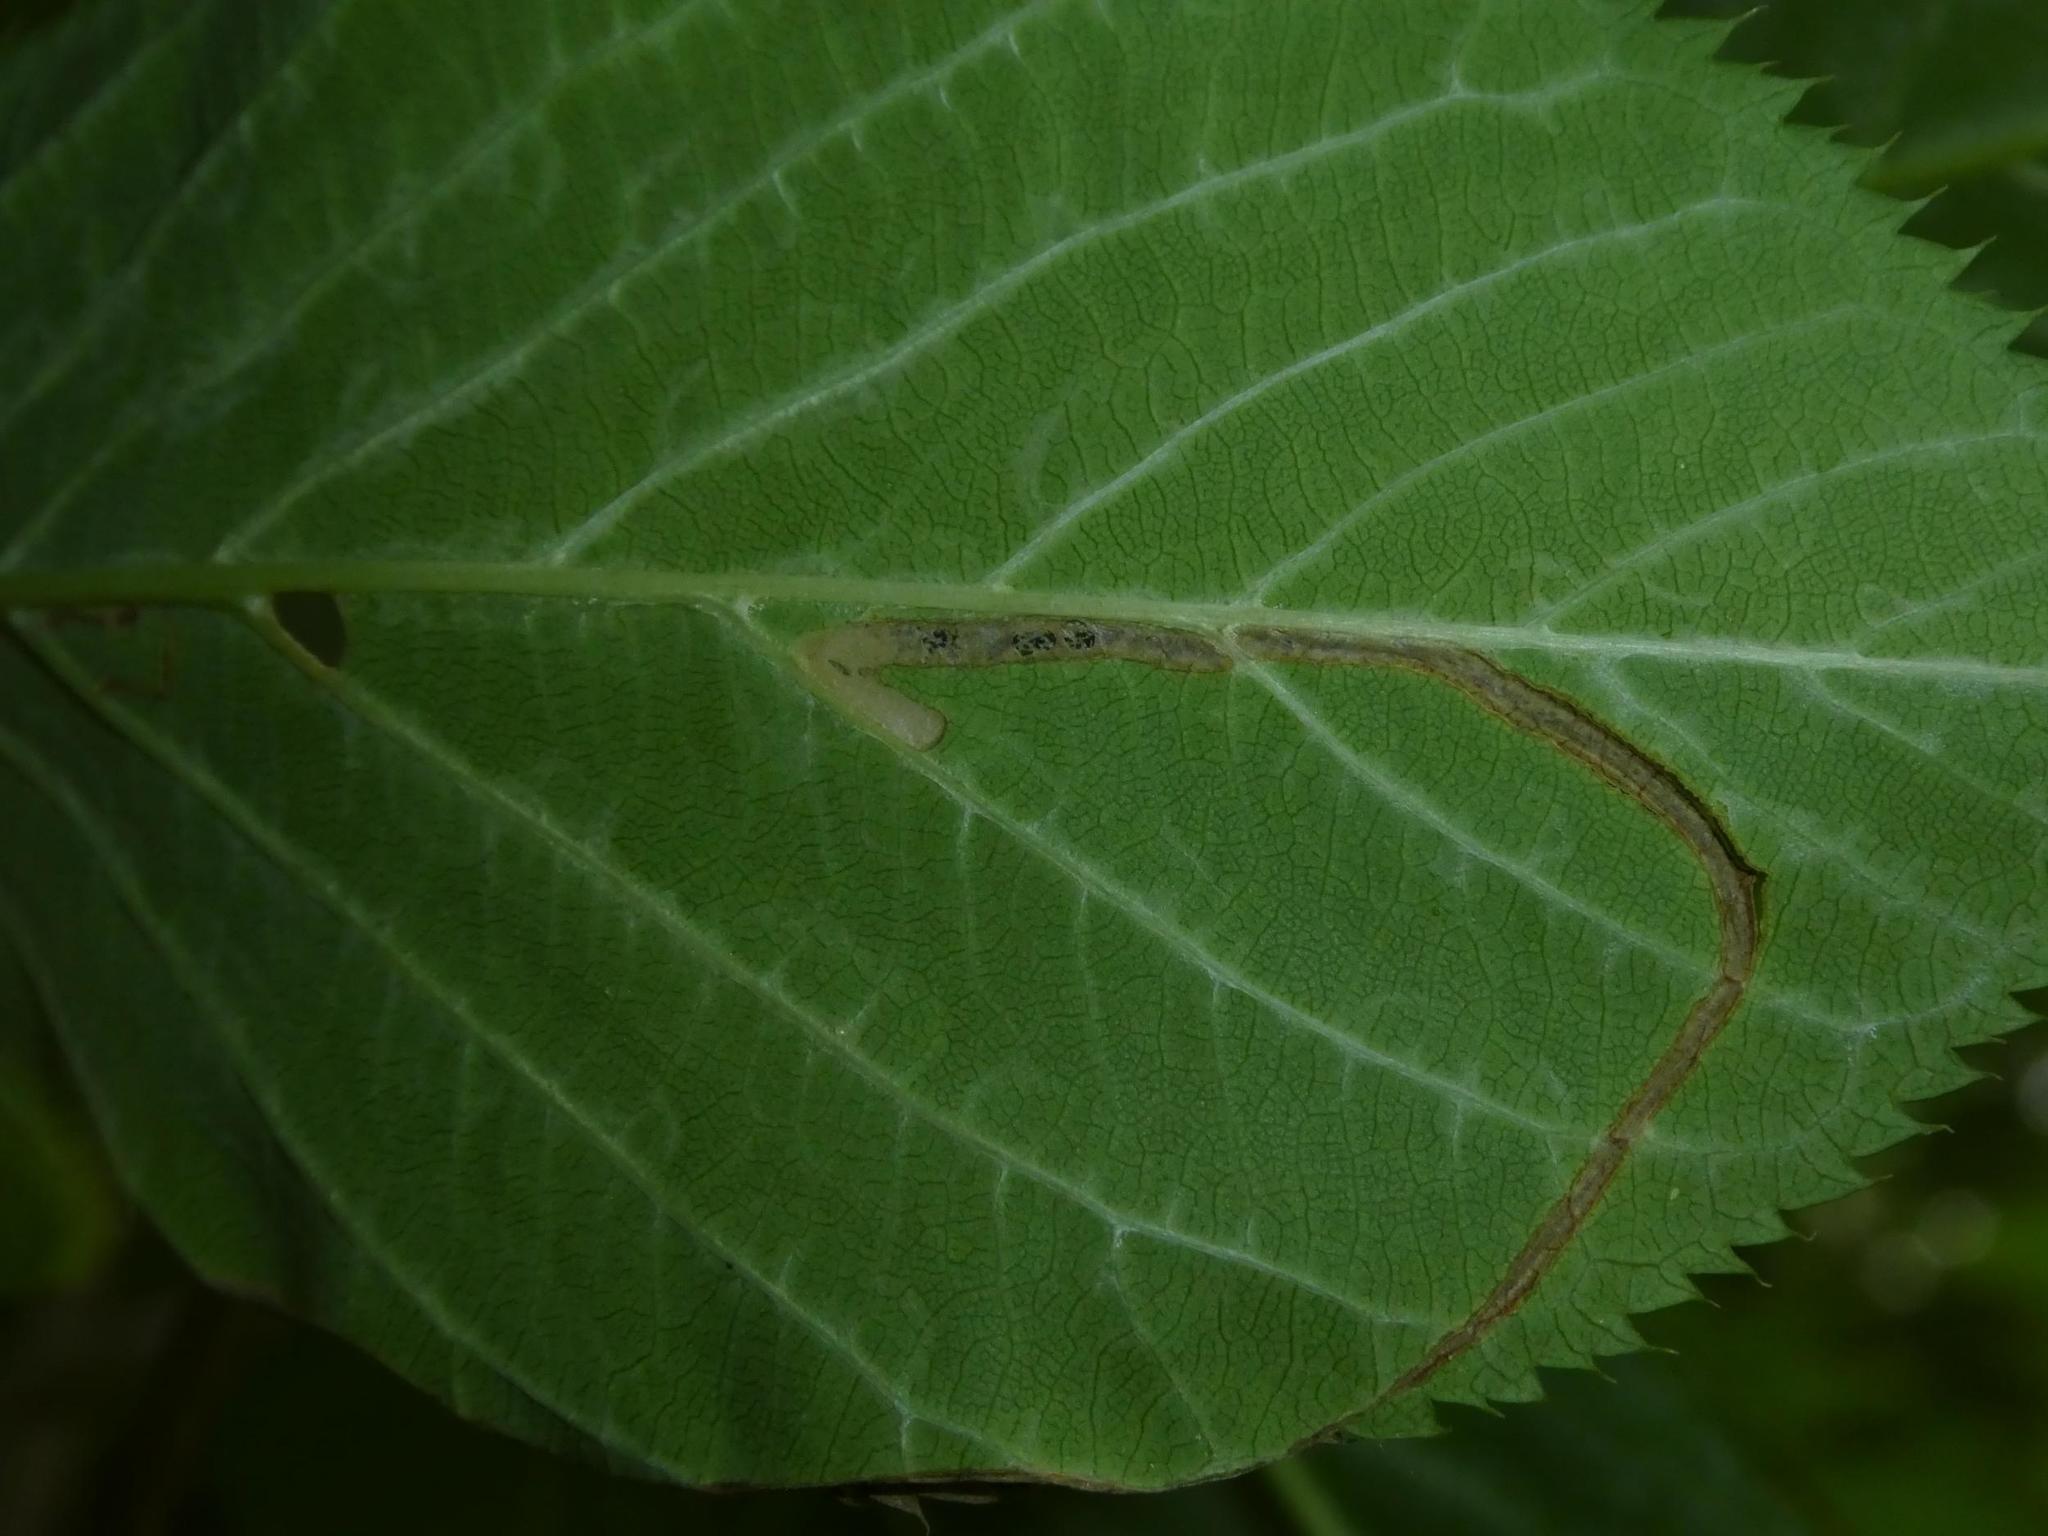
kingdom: Animalia
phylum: Arthropoda
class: Insecta
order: Lepidoptera
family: Lyonetiidae
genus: Lyonetia
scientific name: Lyonetia clerkella
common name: Apple leaf miner
